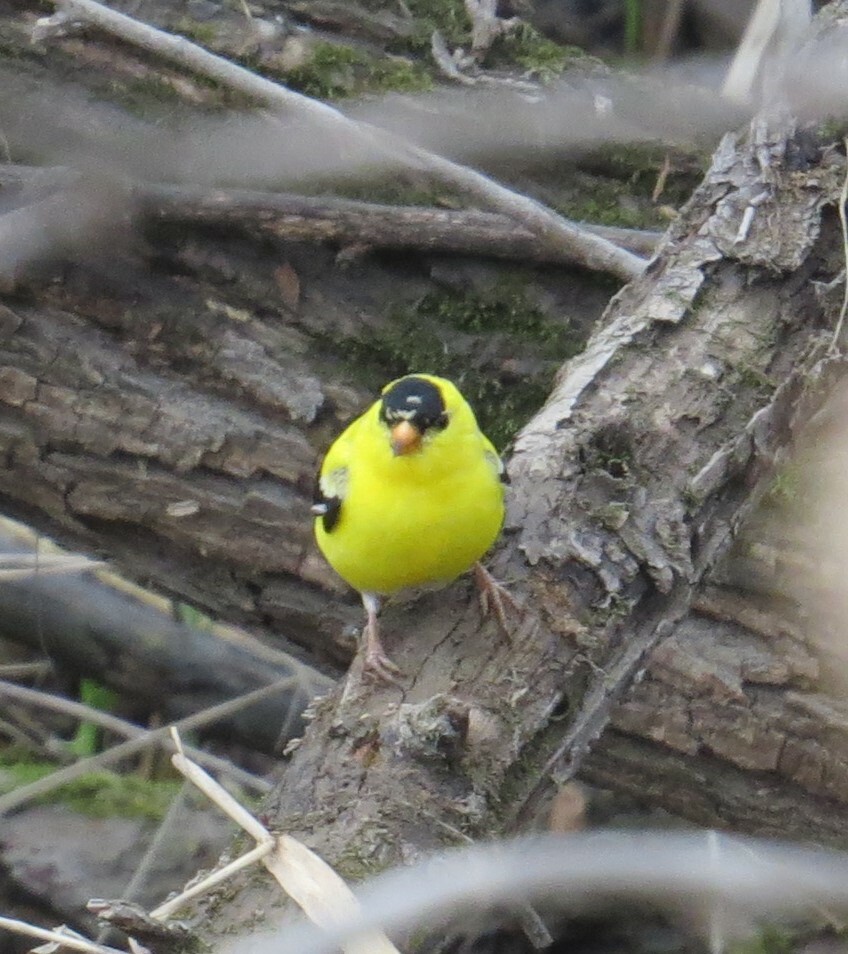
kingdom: Animalia
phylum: Chordata
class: Aves
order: Passeriformes
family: Fringillidae
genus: Spinus
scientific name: Spinus tristis
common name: American goldfinch
